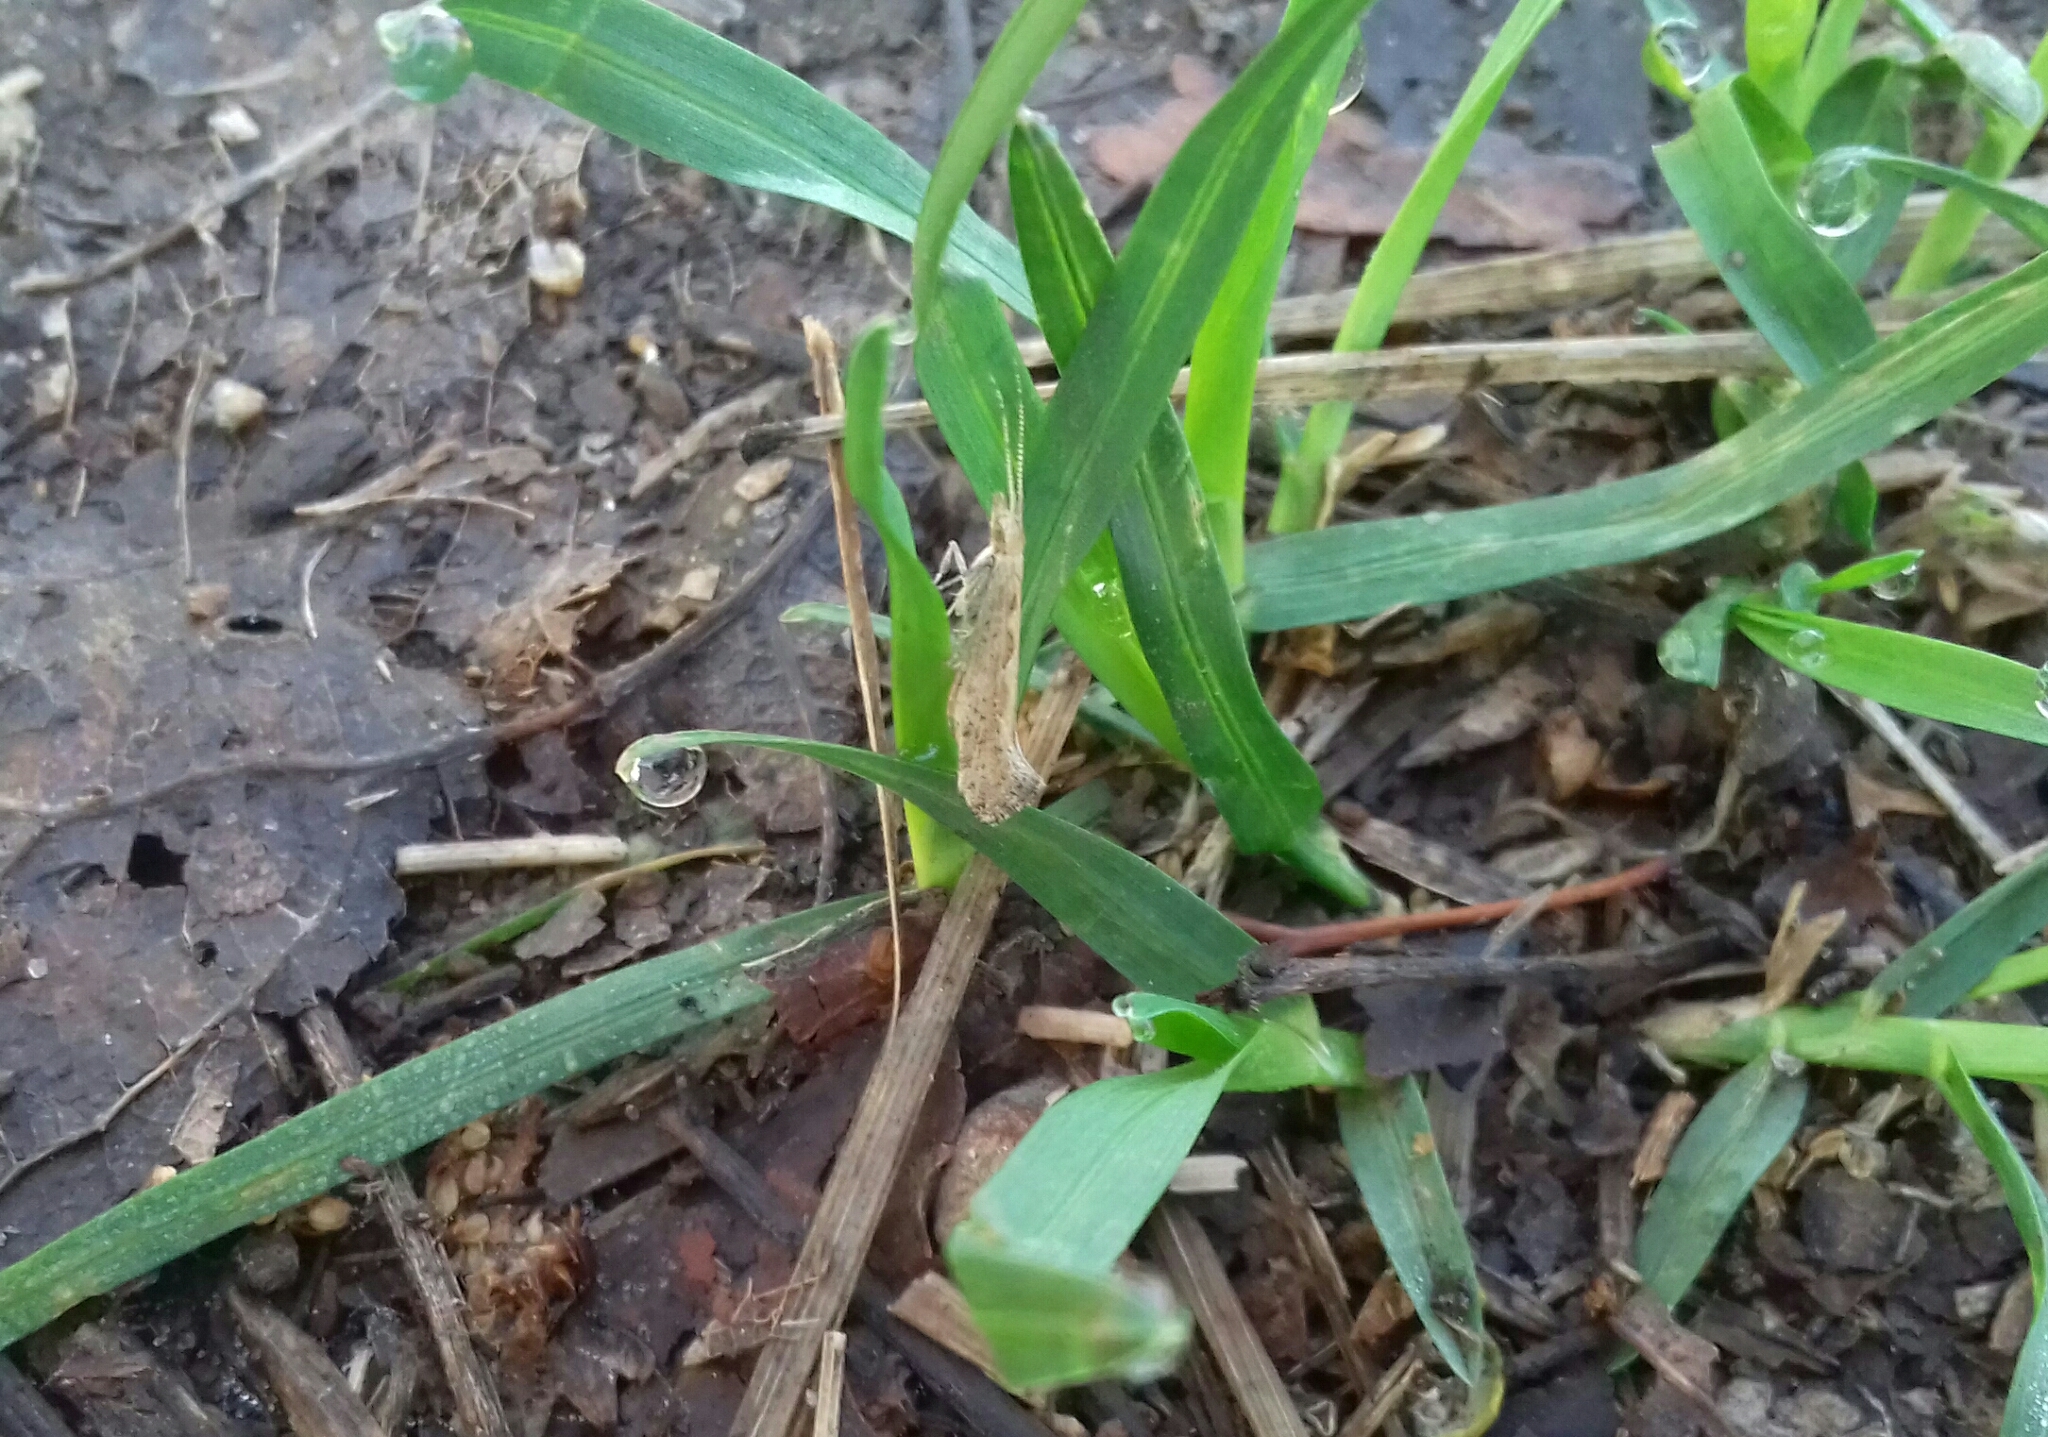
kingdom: Animalia
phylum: Arthropoda
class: Insecta
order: Lepidoptera
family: Plutellidae
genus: Plutella
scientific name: Plutella xylostella
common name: Diamond-back moth
